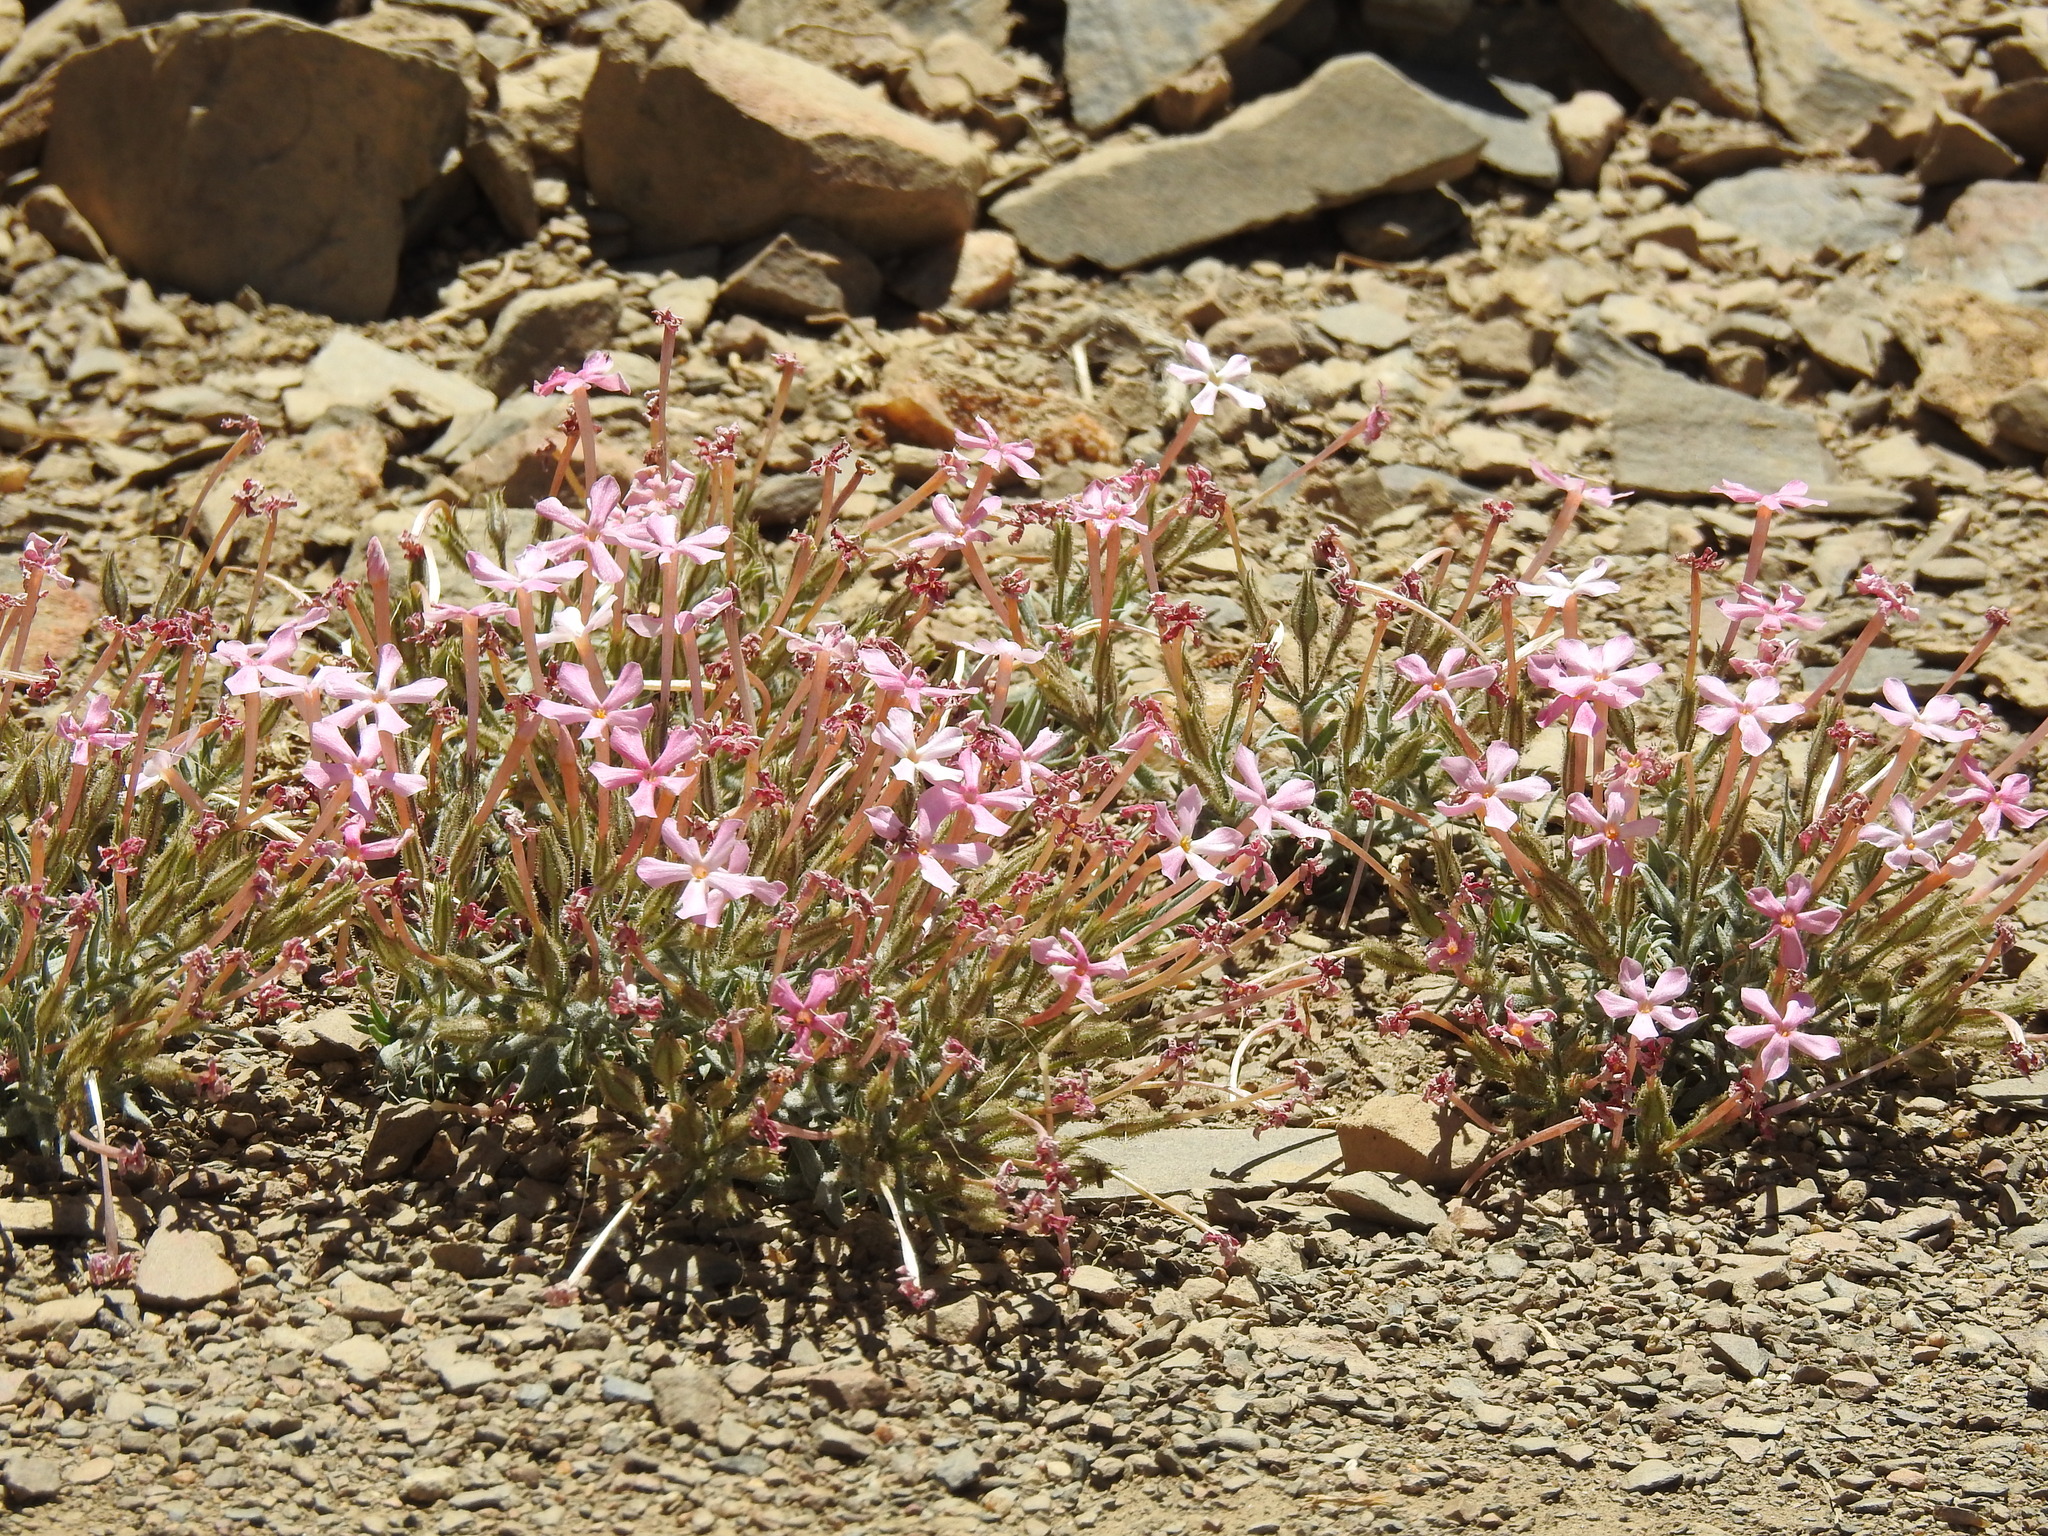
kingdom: Plantae
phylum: Tracheophyta
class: Magnoliopsida
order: Ericales
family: Polemoniaceae
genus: Phlox
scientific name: Phlox longifolia
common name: Longleaf phlox
